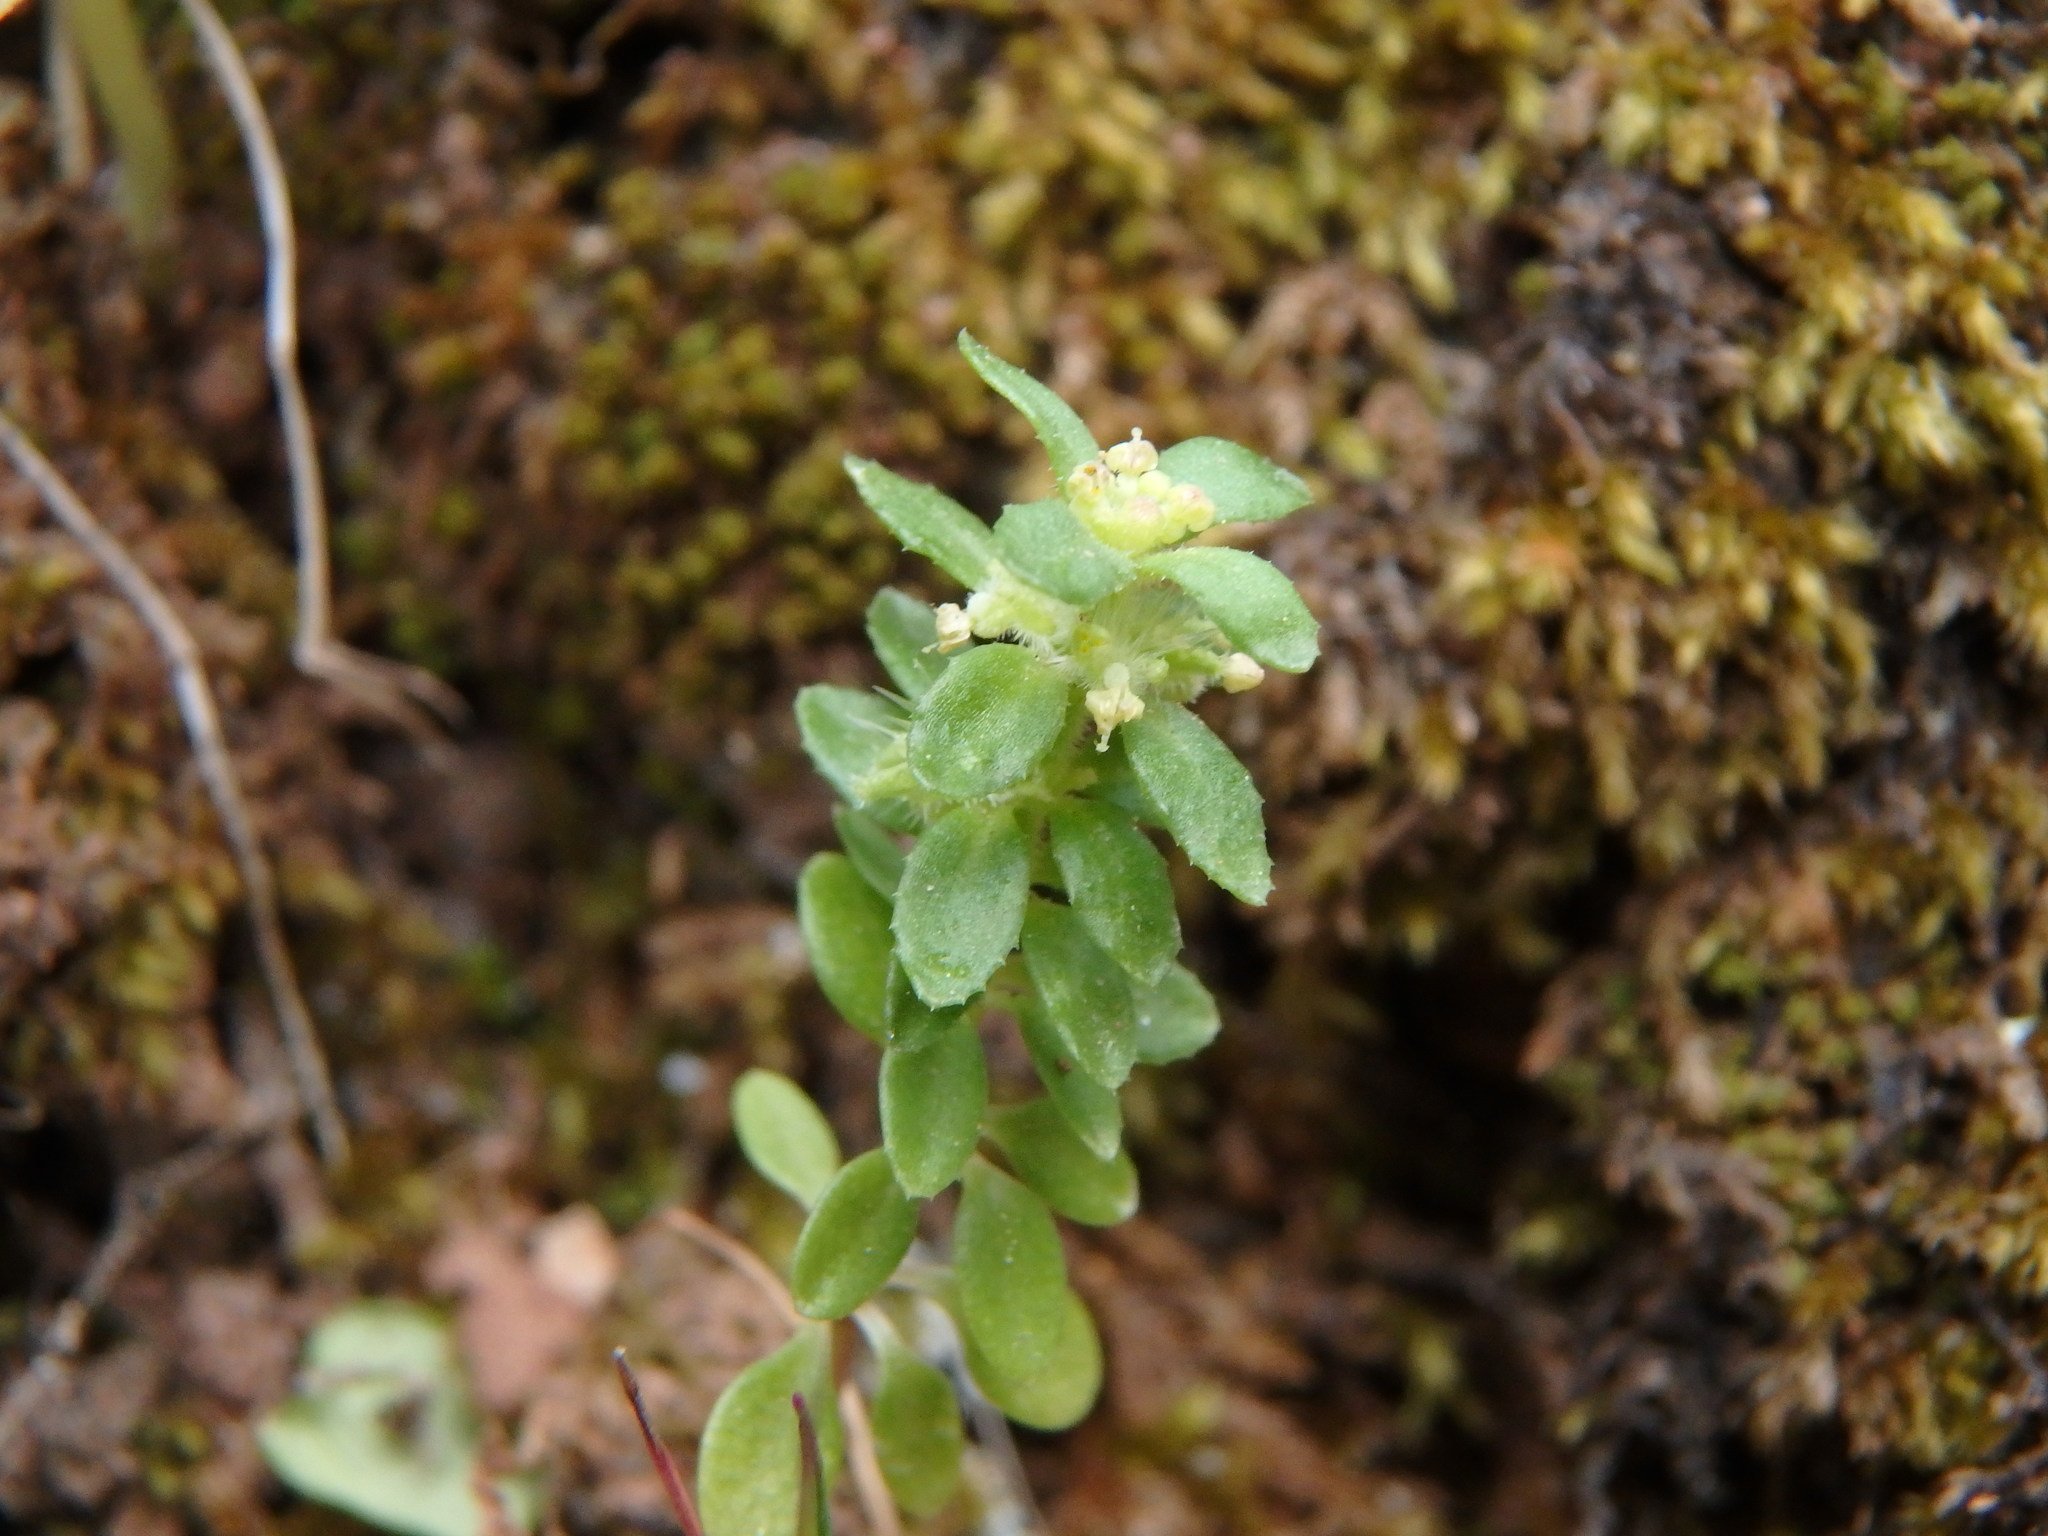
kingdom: Plantae
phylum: Tracheophyta
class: Magnoliopsida
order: Gentianales
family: Rubiaceae
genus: Valantia
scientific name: Valantia muralis
